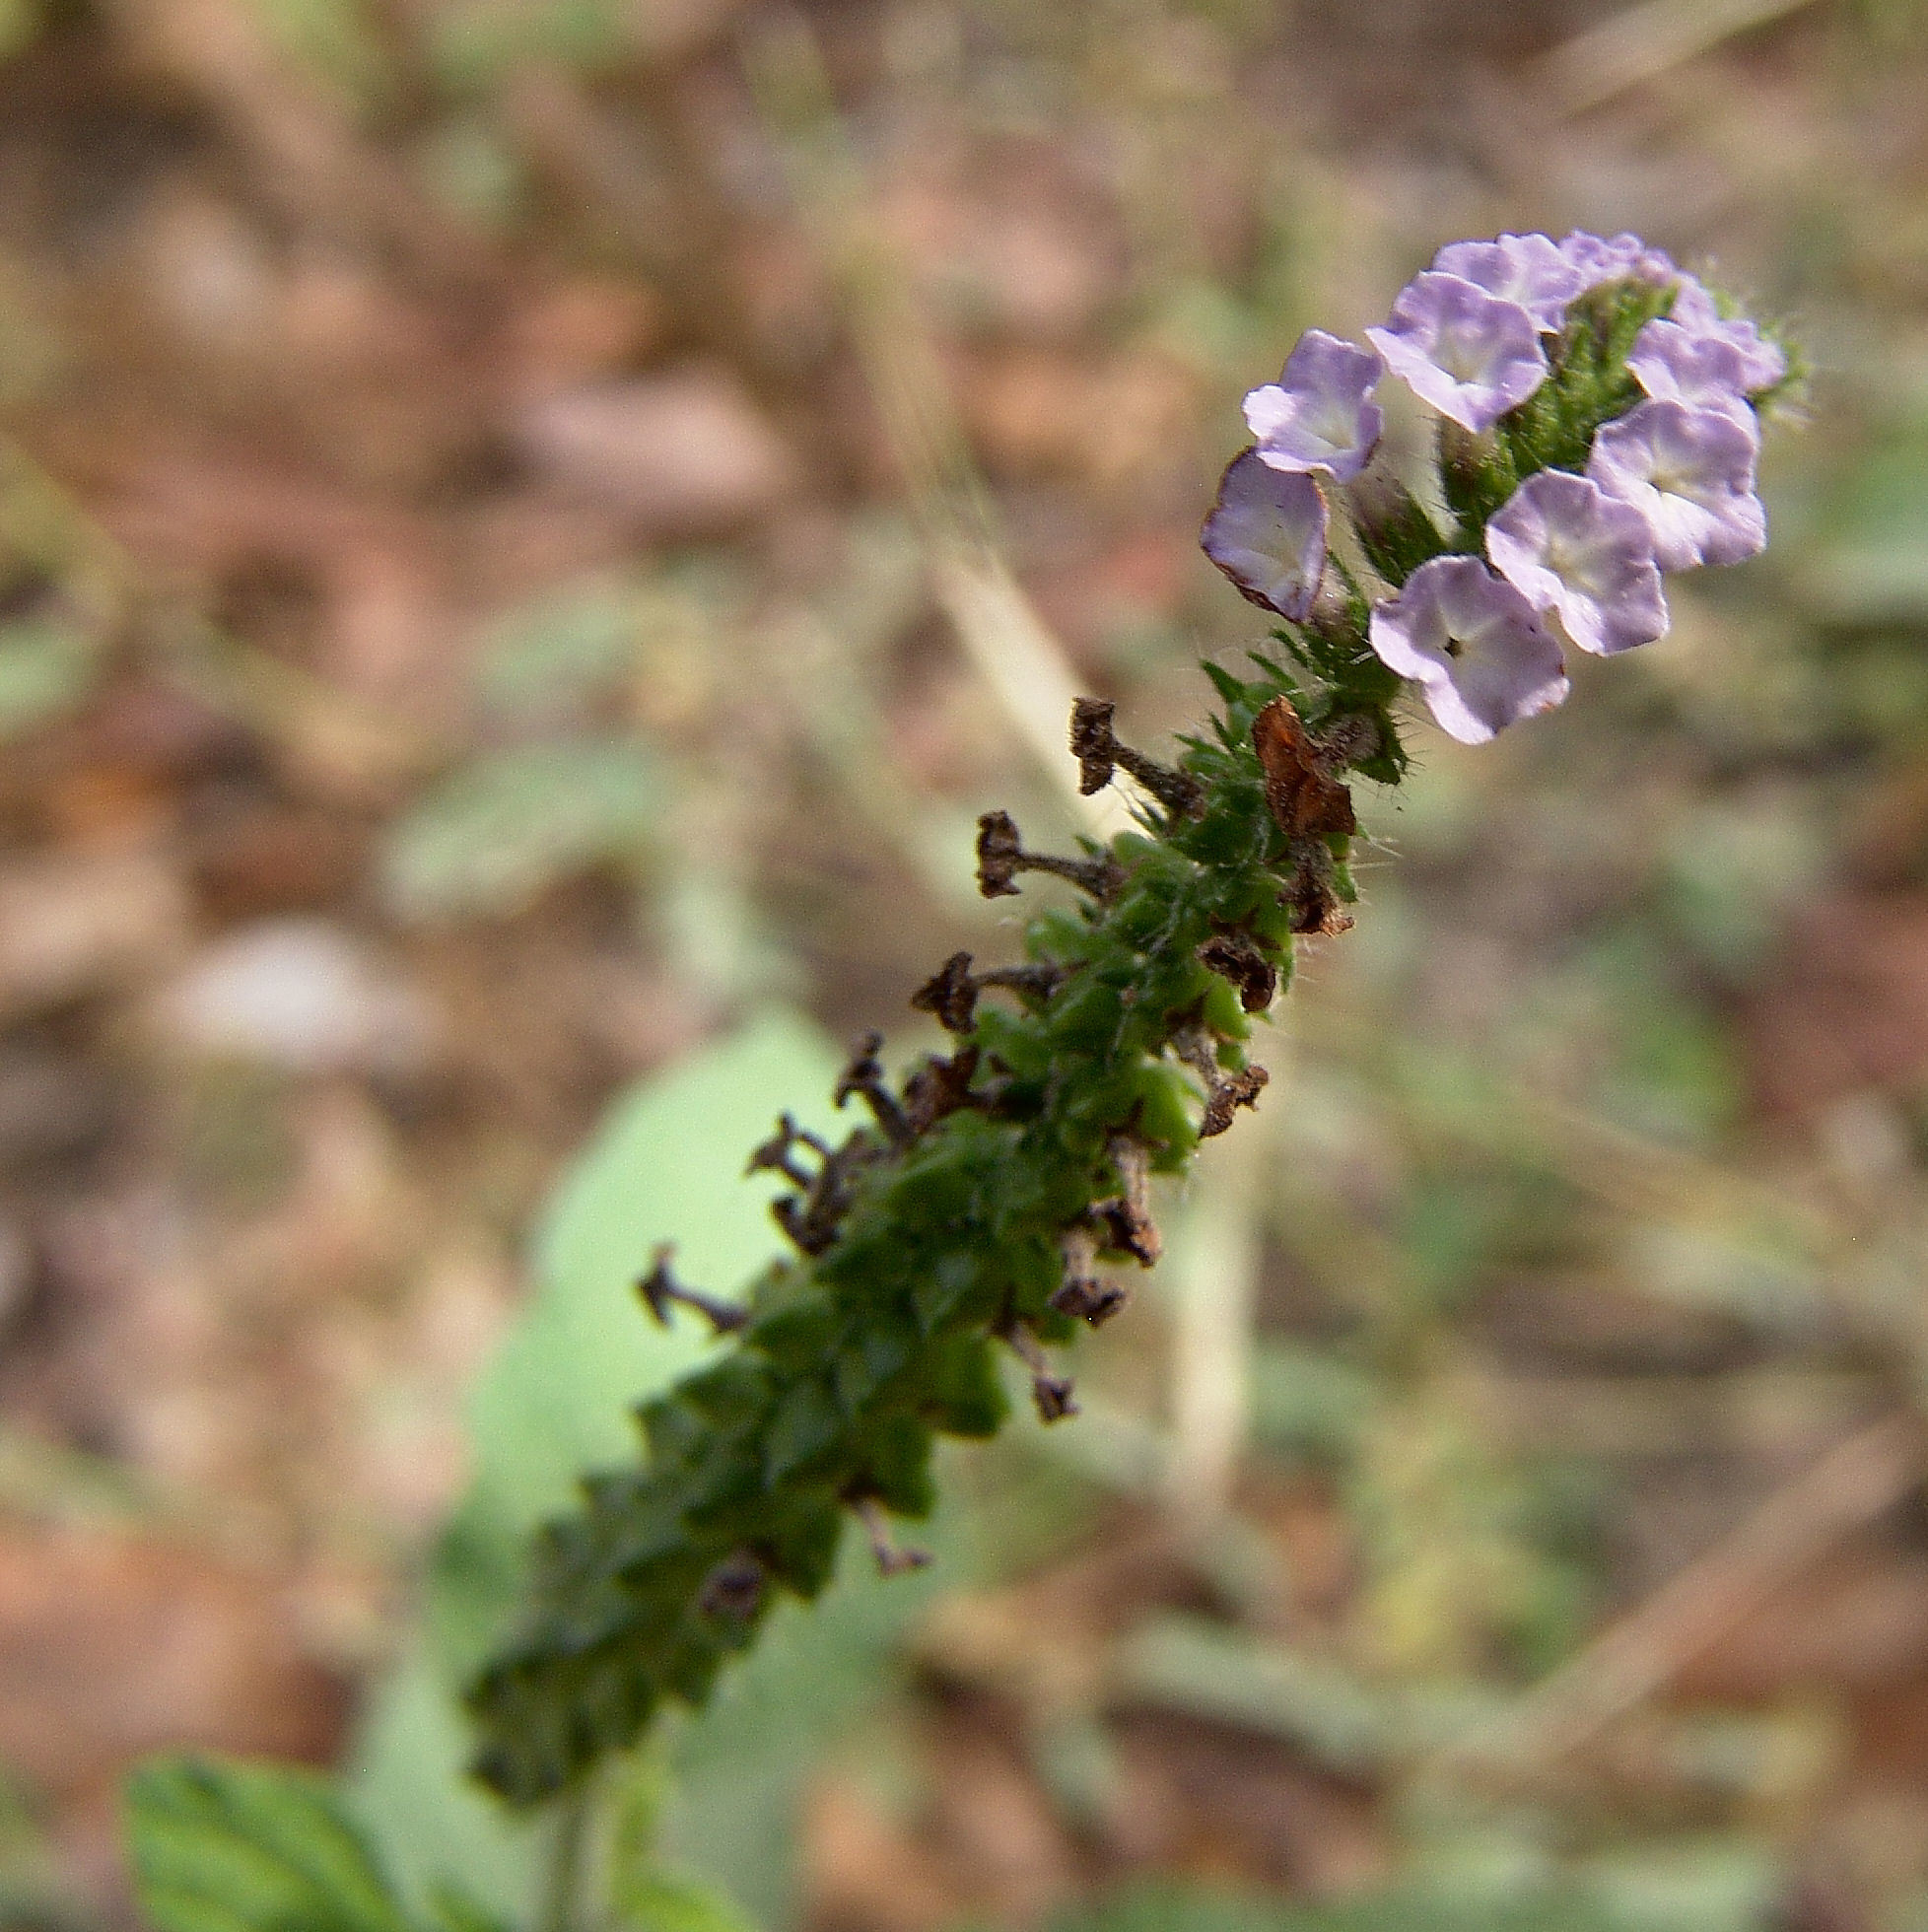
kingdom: Plantae
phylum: Tracheophyta
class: Magnoliopsida
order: Boraginales
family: Heliotropiaceae
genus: Heliotropium
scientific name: Heliotropium indicum
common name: Indian heliotrope
